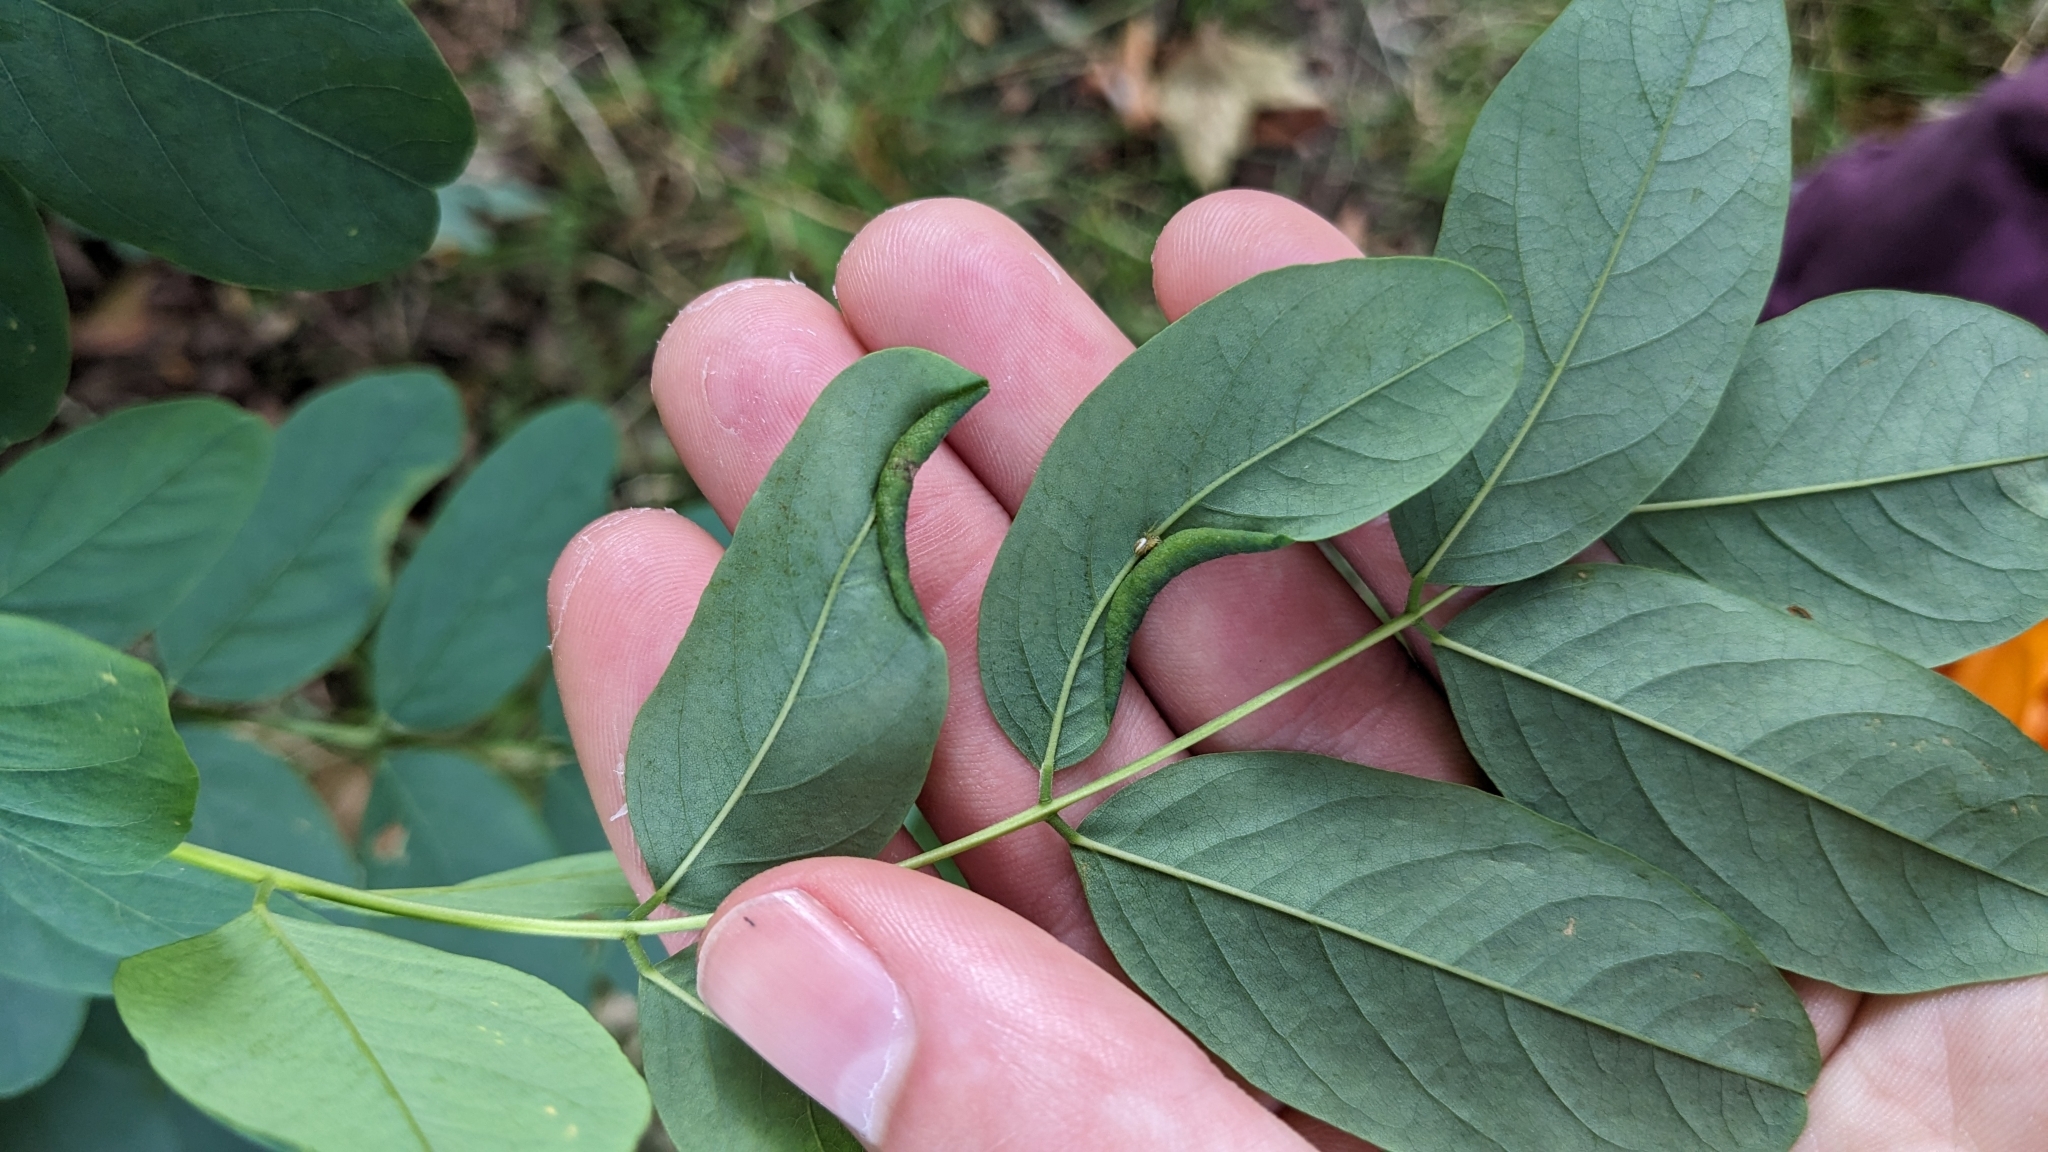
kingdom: Animalia
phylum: Arthropoda
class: Insecta
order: Diptera
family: Cecidomyiidae
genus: Obolodiplosis
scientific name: Obolodiplosis robiniae
